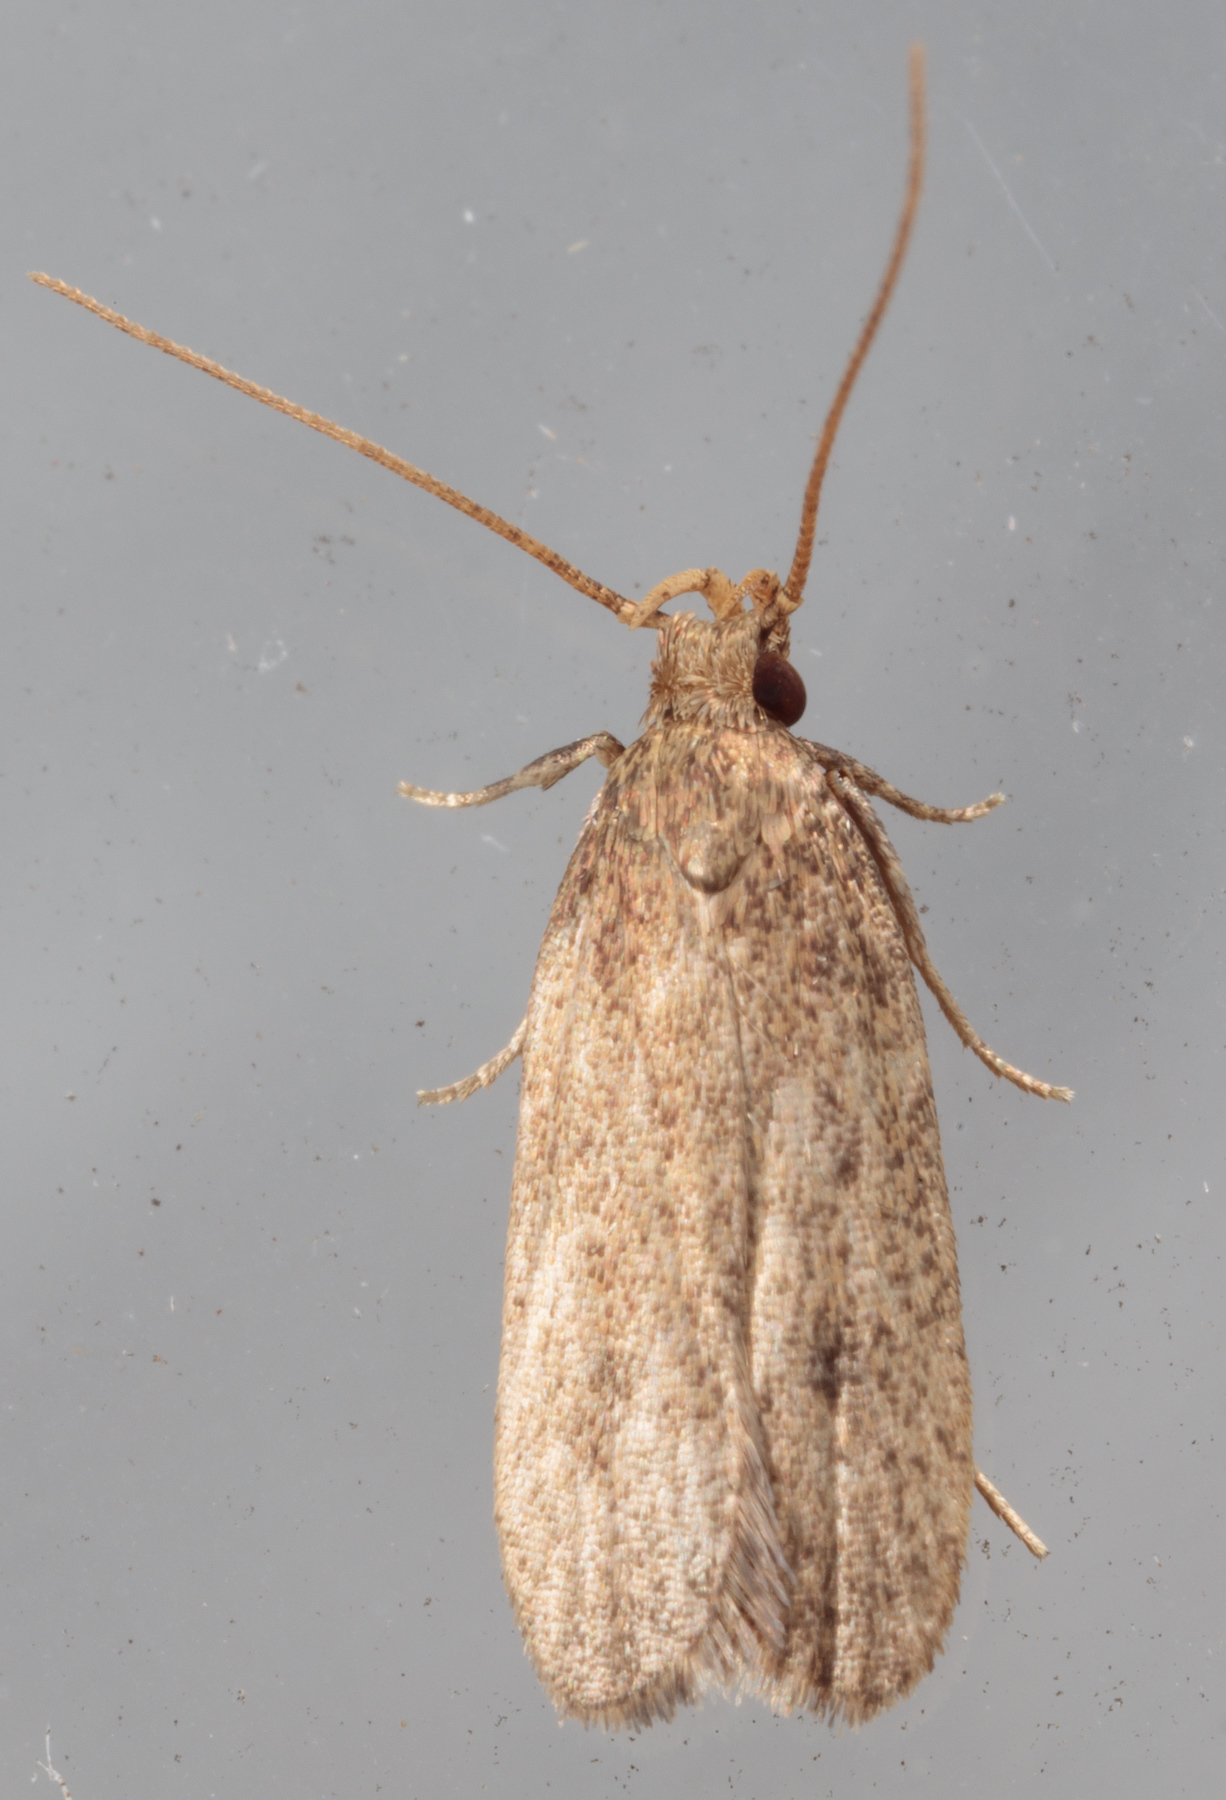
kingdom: Animalia
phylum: Arthropoda
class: Insecta
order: Lepidoptera
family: Autostichidae
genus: Glyphidocera
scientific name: Glyphidocera juniperella
